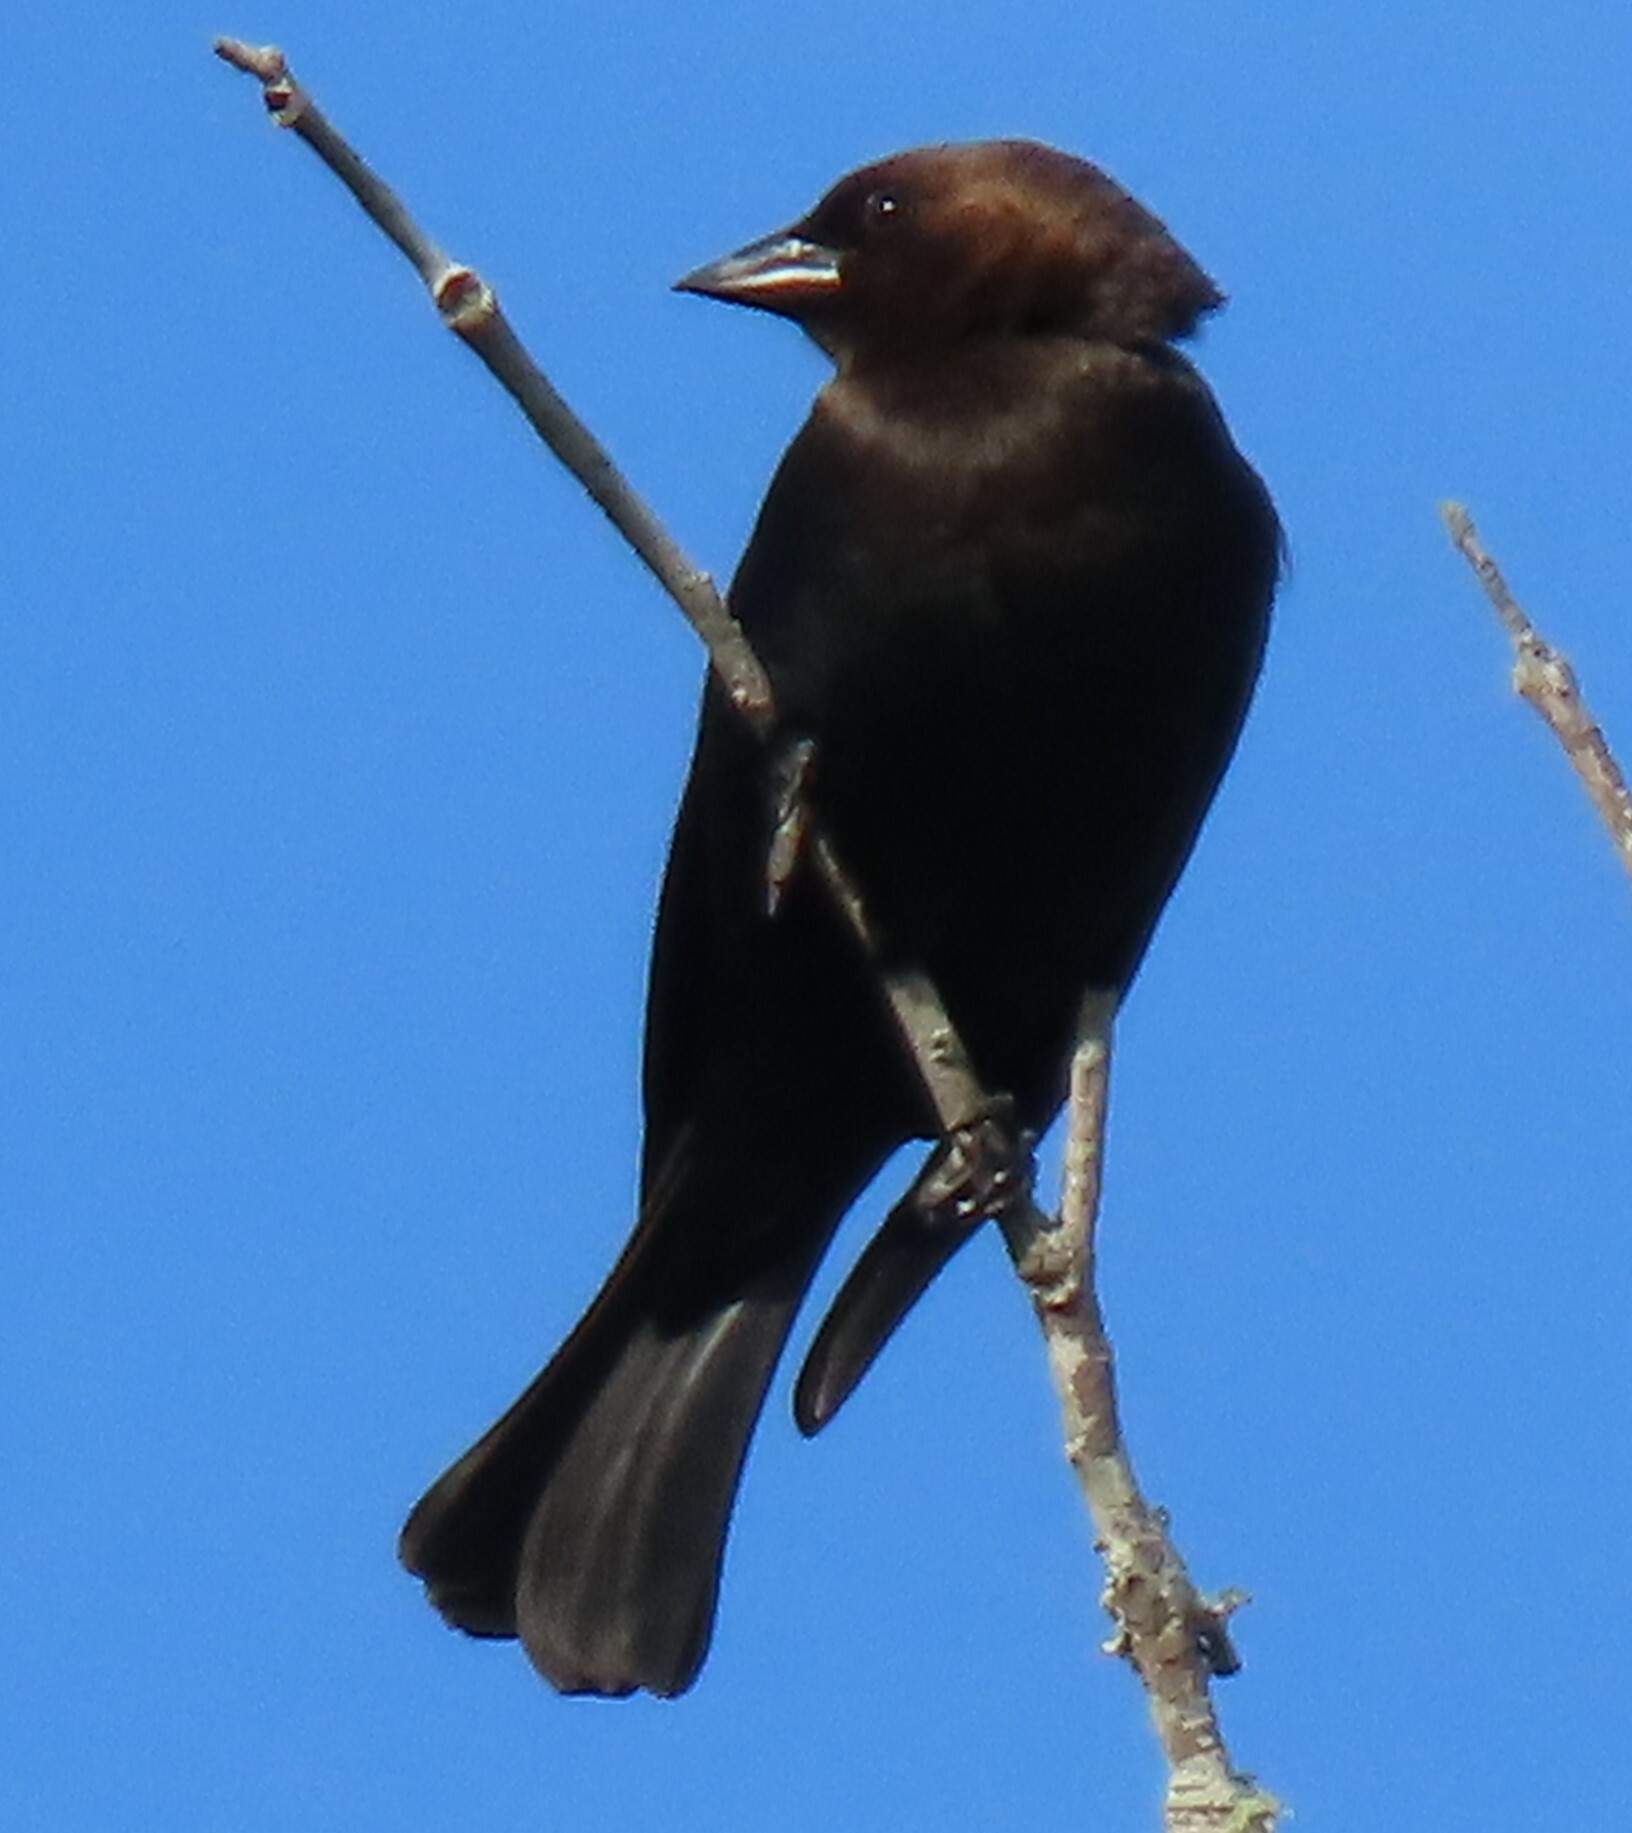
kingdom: Animalia
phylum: Chordata
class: Aves
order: Passeriformes
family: Icteridae
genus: Molothrus
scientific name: Molothrus ater
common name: Brown-headed cowbird
